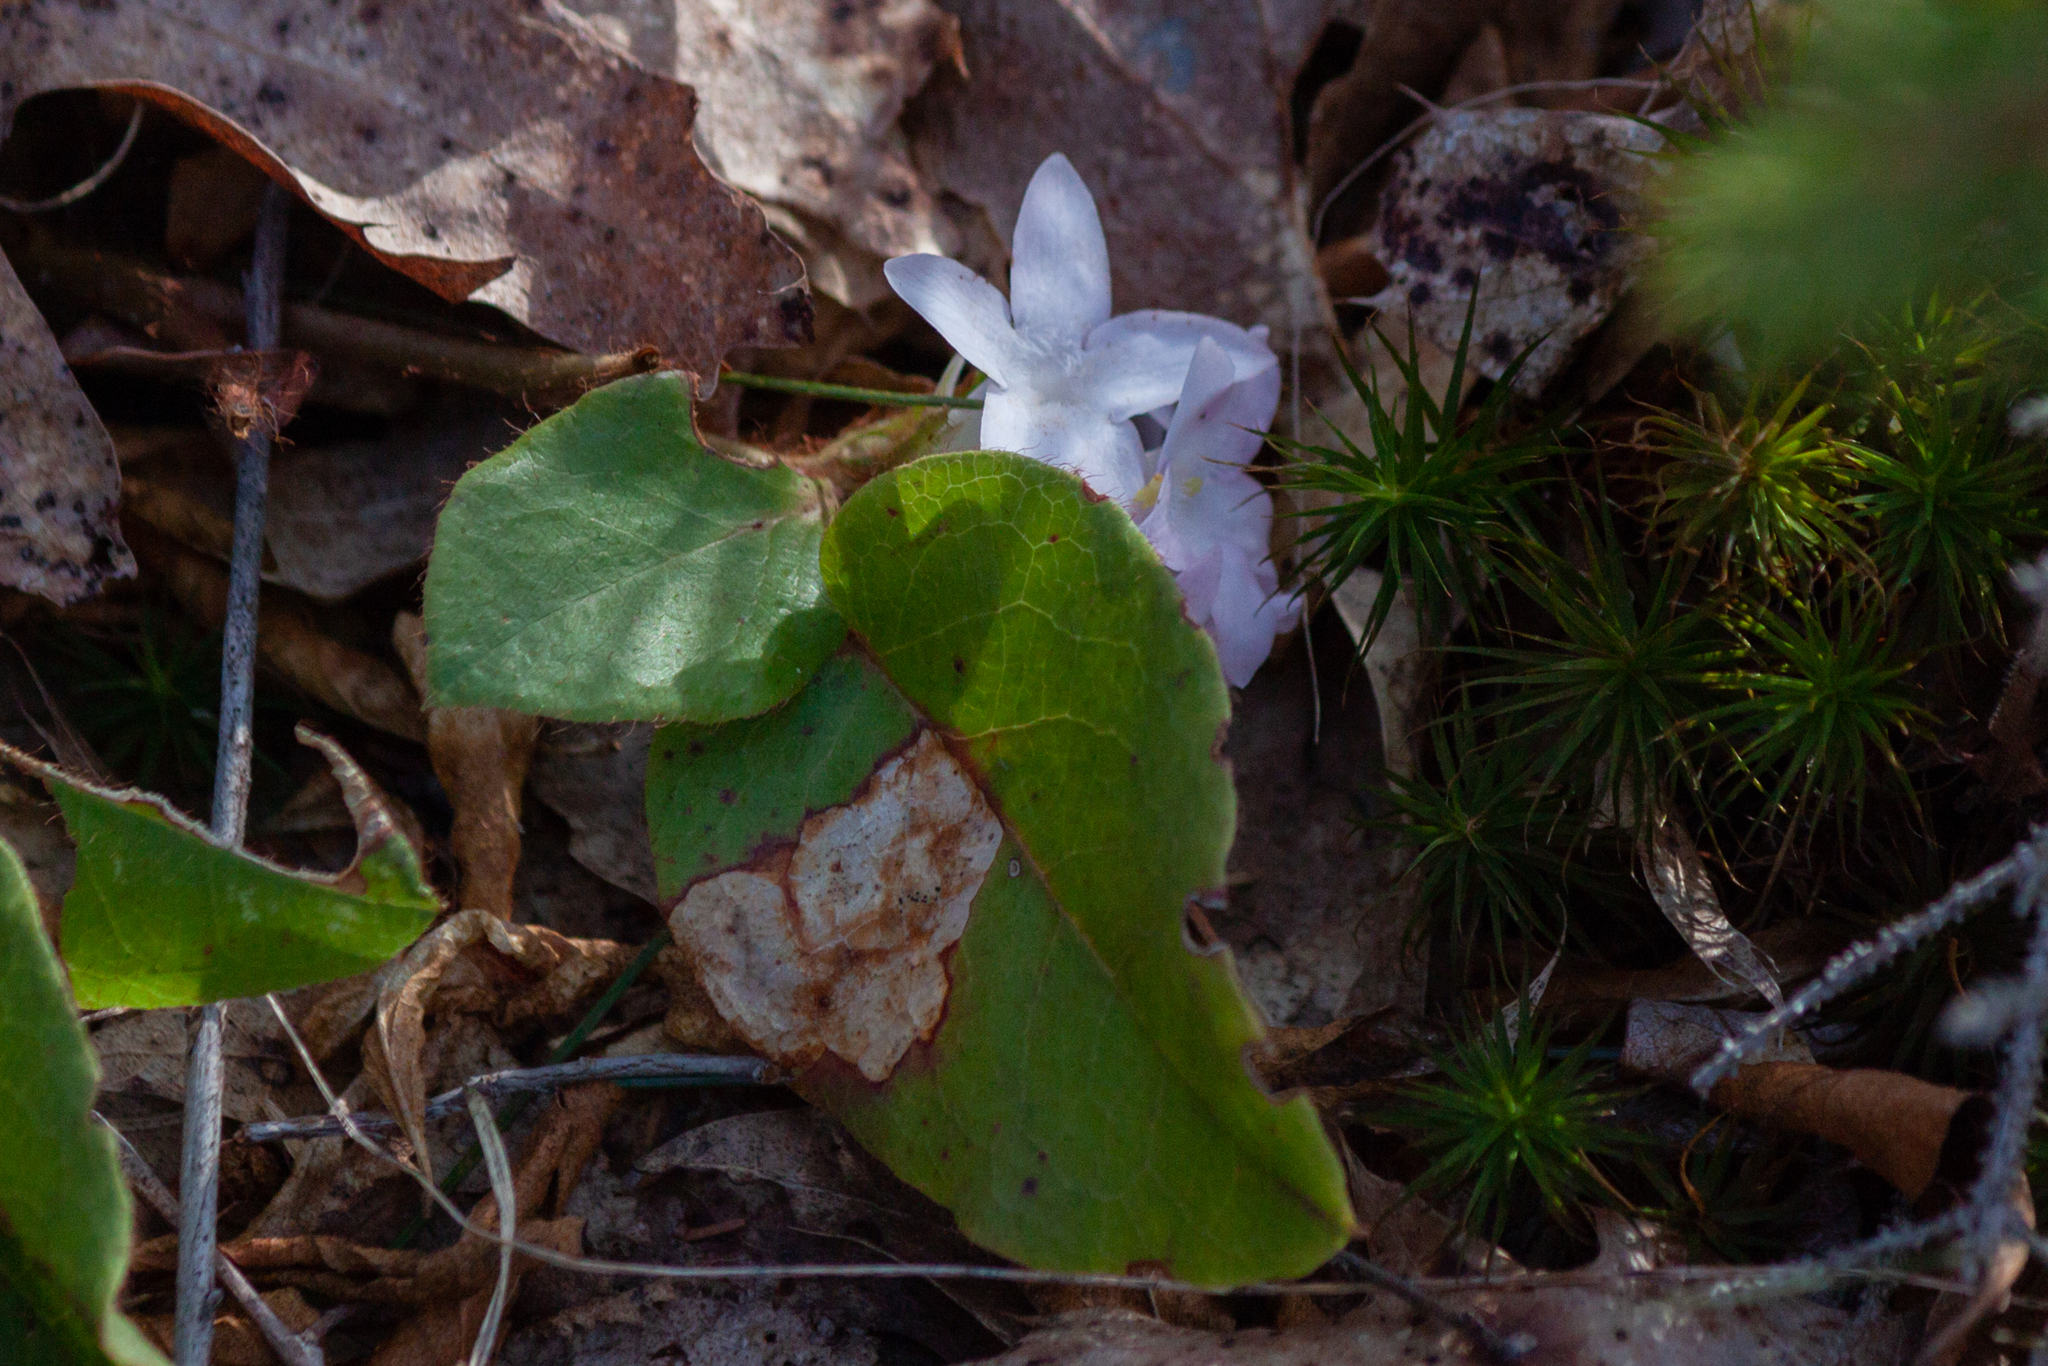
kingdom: Plantae
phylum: Tracheophyta
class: Magnoliopsida
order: Ericales
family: Ericaceae
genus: Epigaea
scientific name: Epigaea repens
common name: Gravelroot
